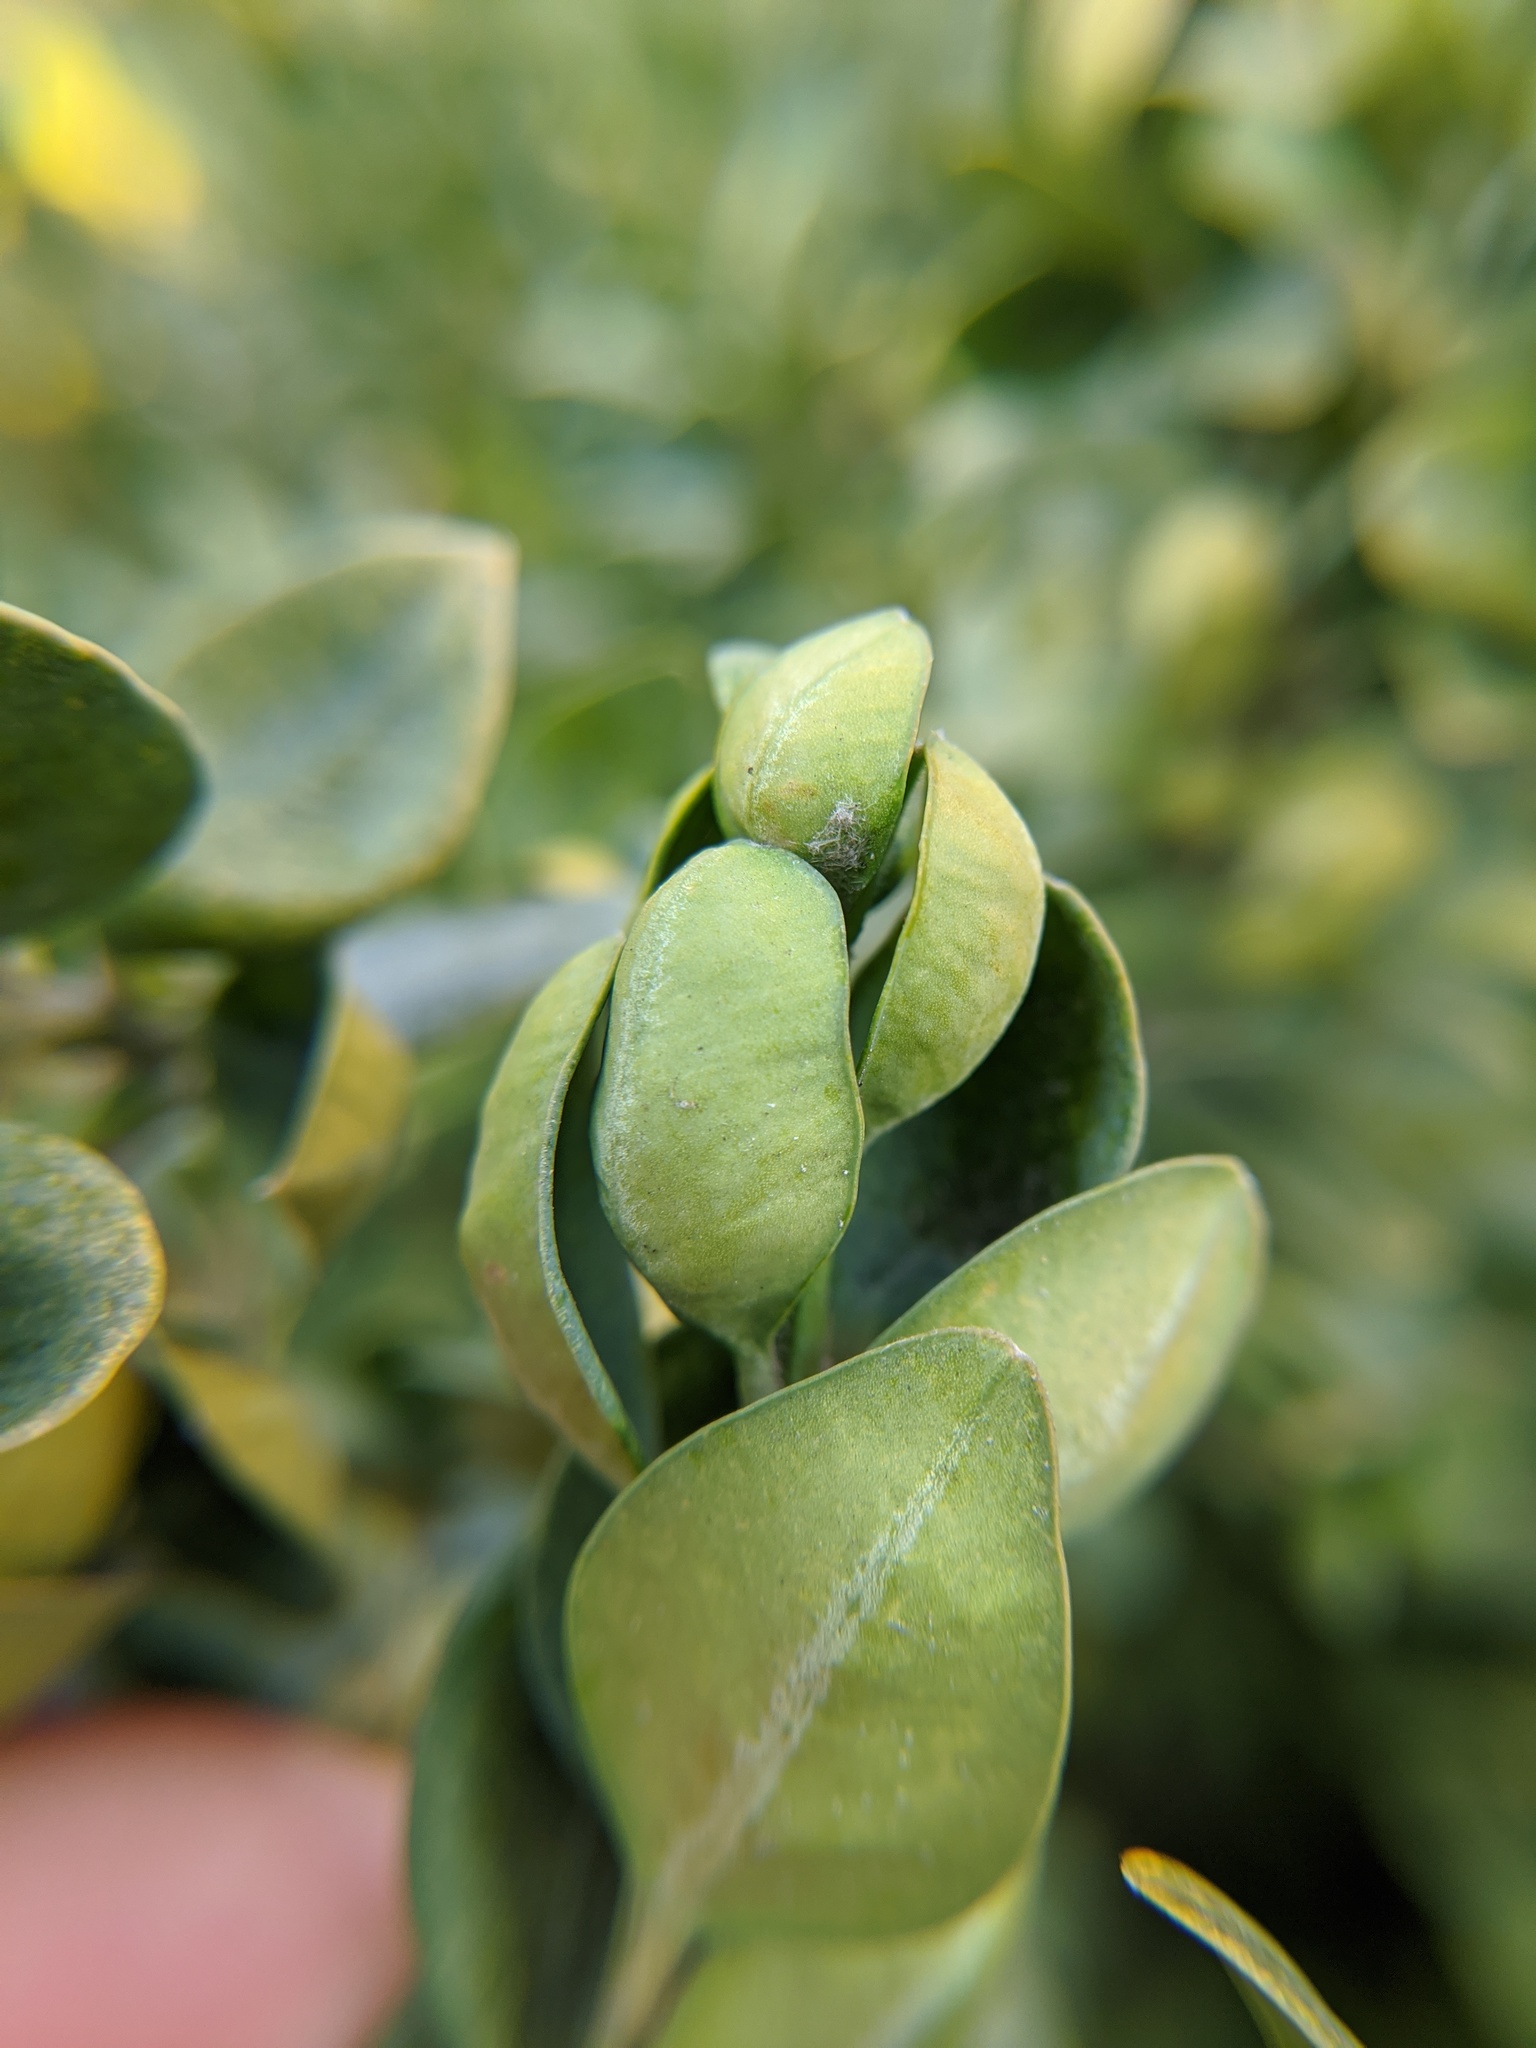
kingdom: Animalia
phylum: Arthropoda
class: Insecta
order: Hemiptera
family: Psyllidae
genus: Psylla
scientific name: Psylla buxi
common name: Boxwood psyllid
